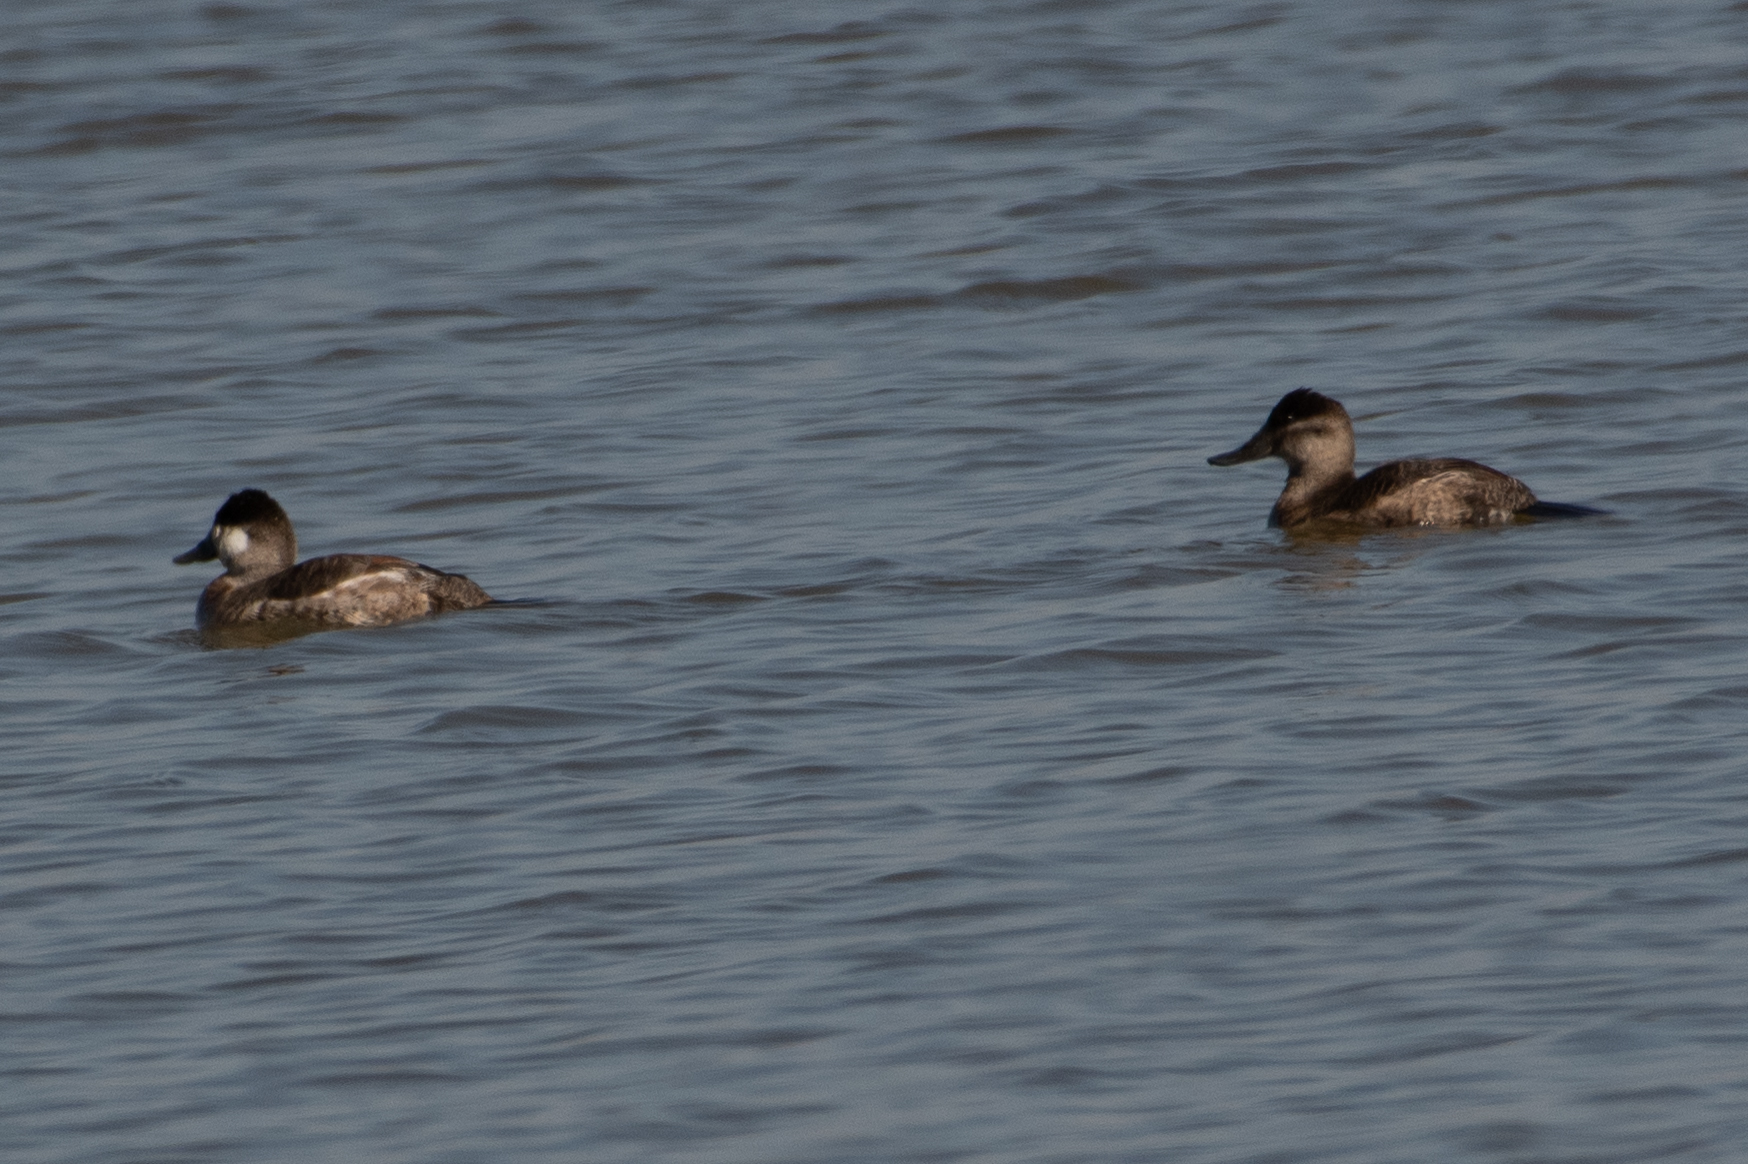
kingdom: Animalia
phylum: Chordata
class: Aves
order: Anseriformes
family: Anatidae
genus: Oxyura
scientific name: Oxyura jamaicensis
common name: Ruddy duck
